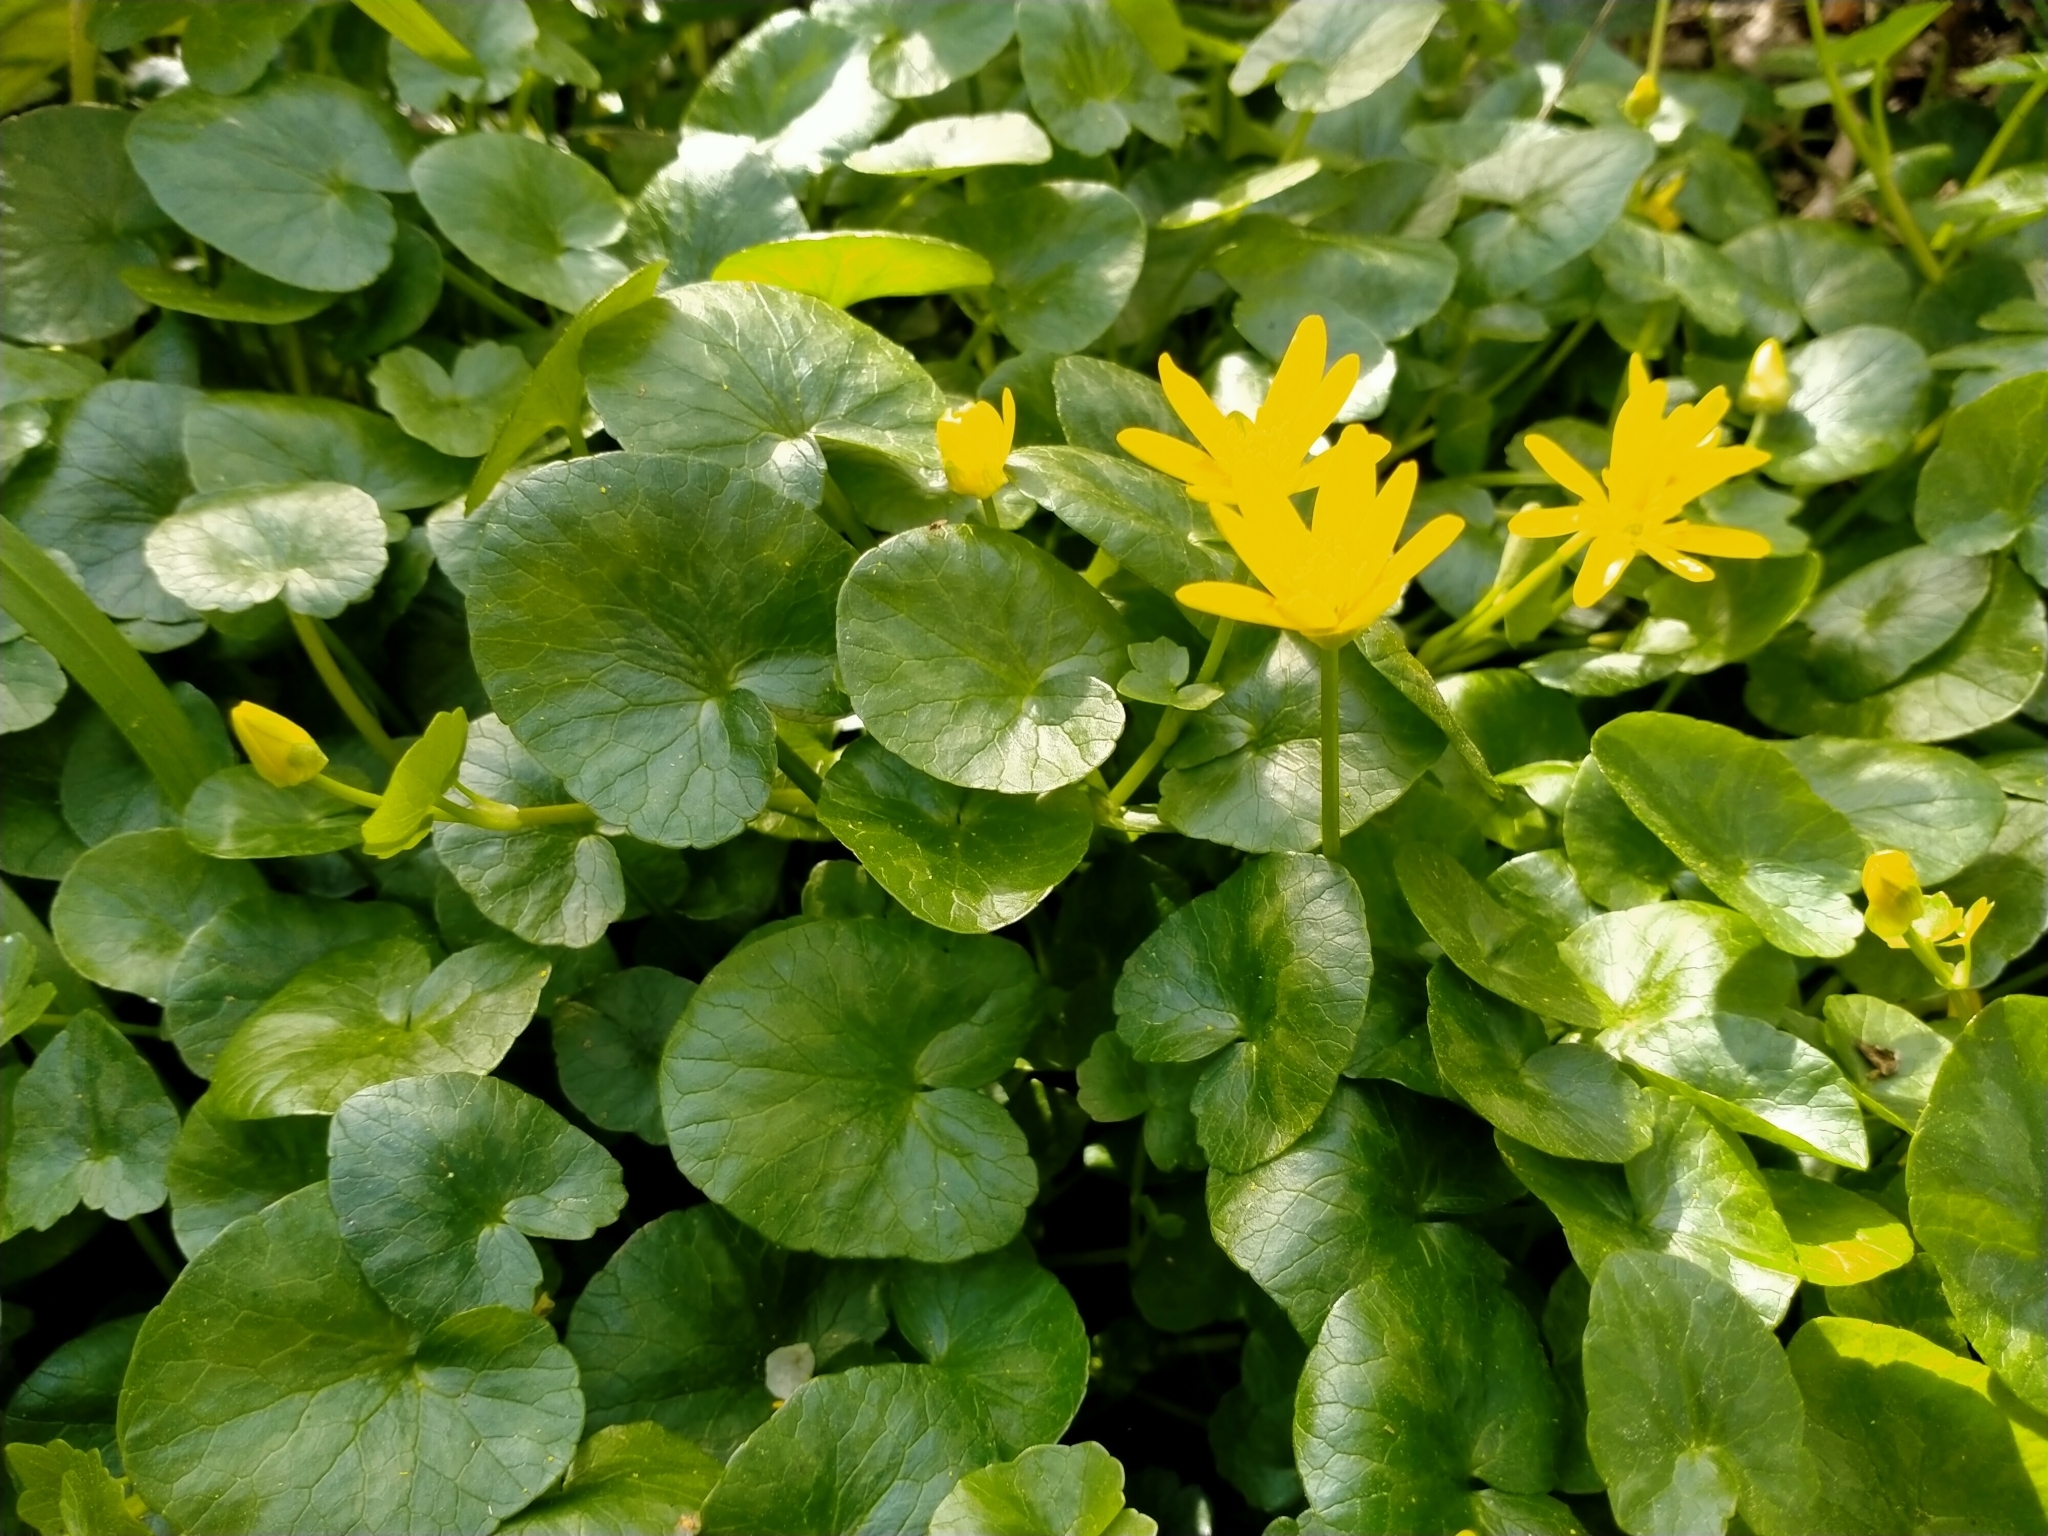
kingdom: Plantae
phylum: Tracheophyta
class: Magnoliopsida
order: Ranunculales
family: Ranunculaceae
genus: Ficaria
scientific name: Ficaria verna
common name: Lesser celandine
